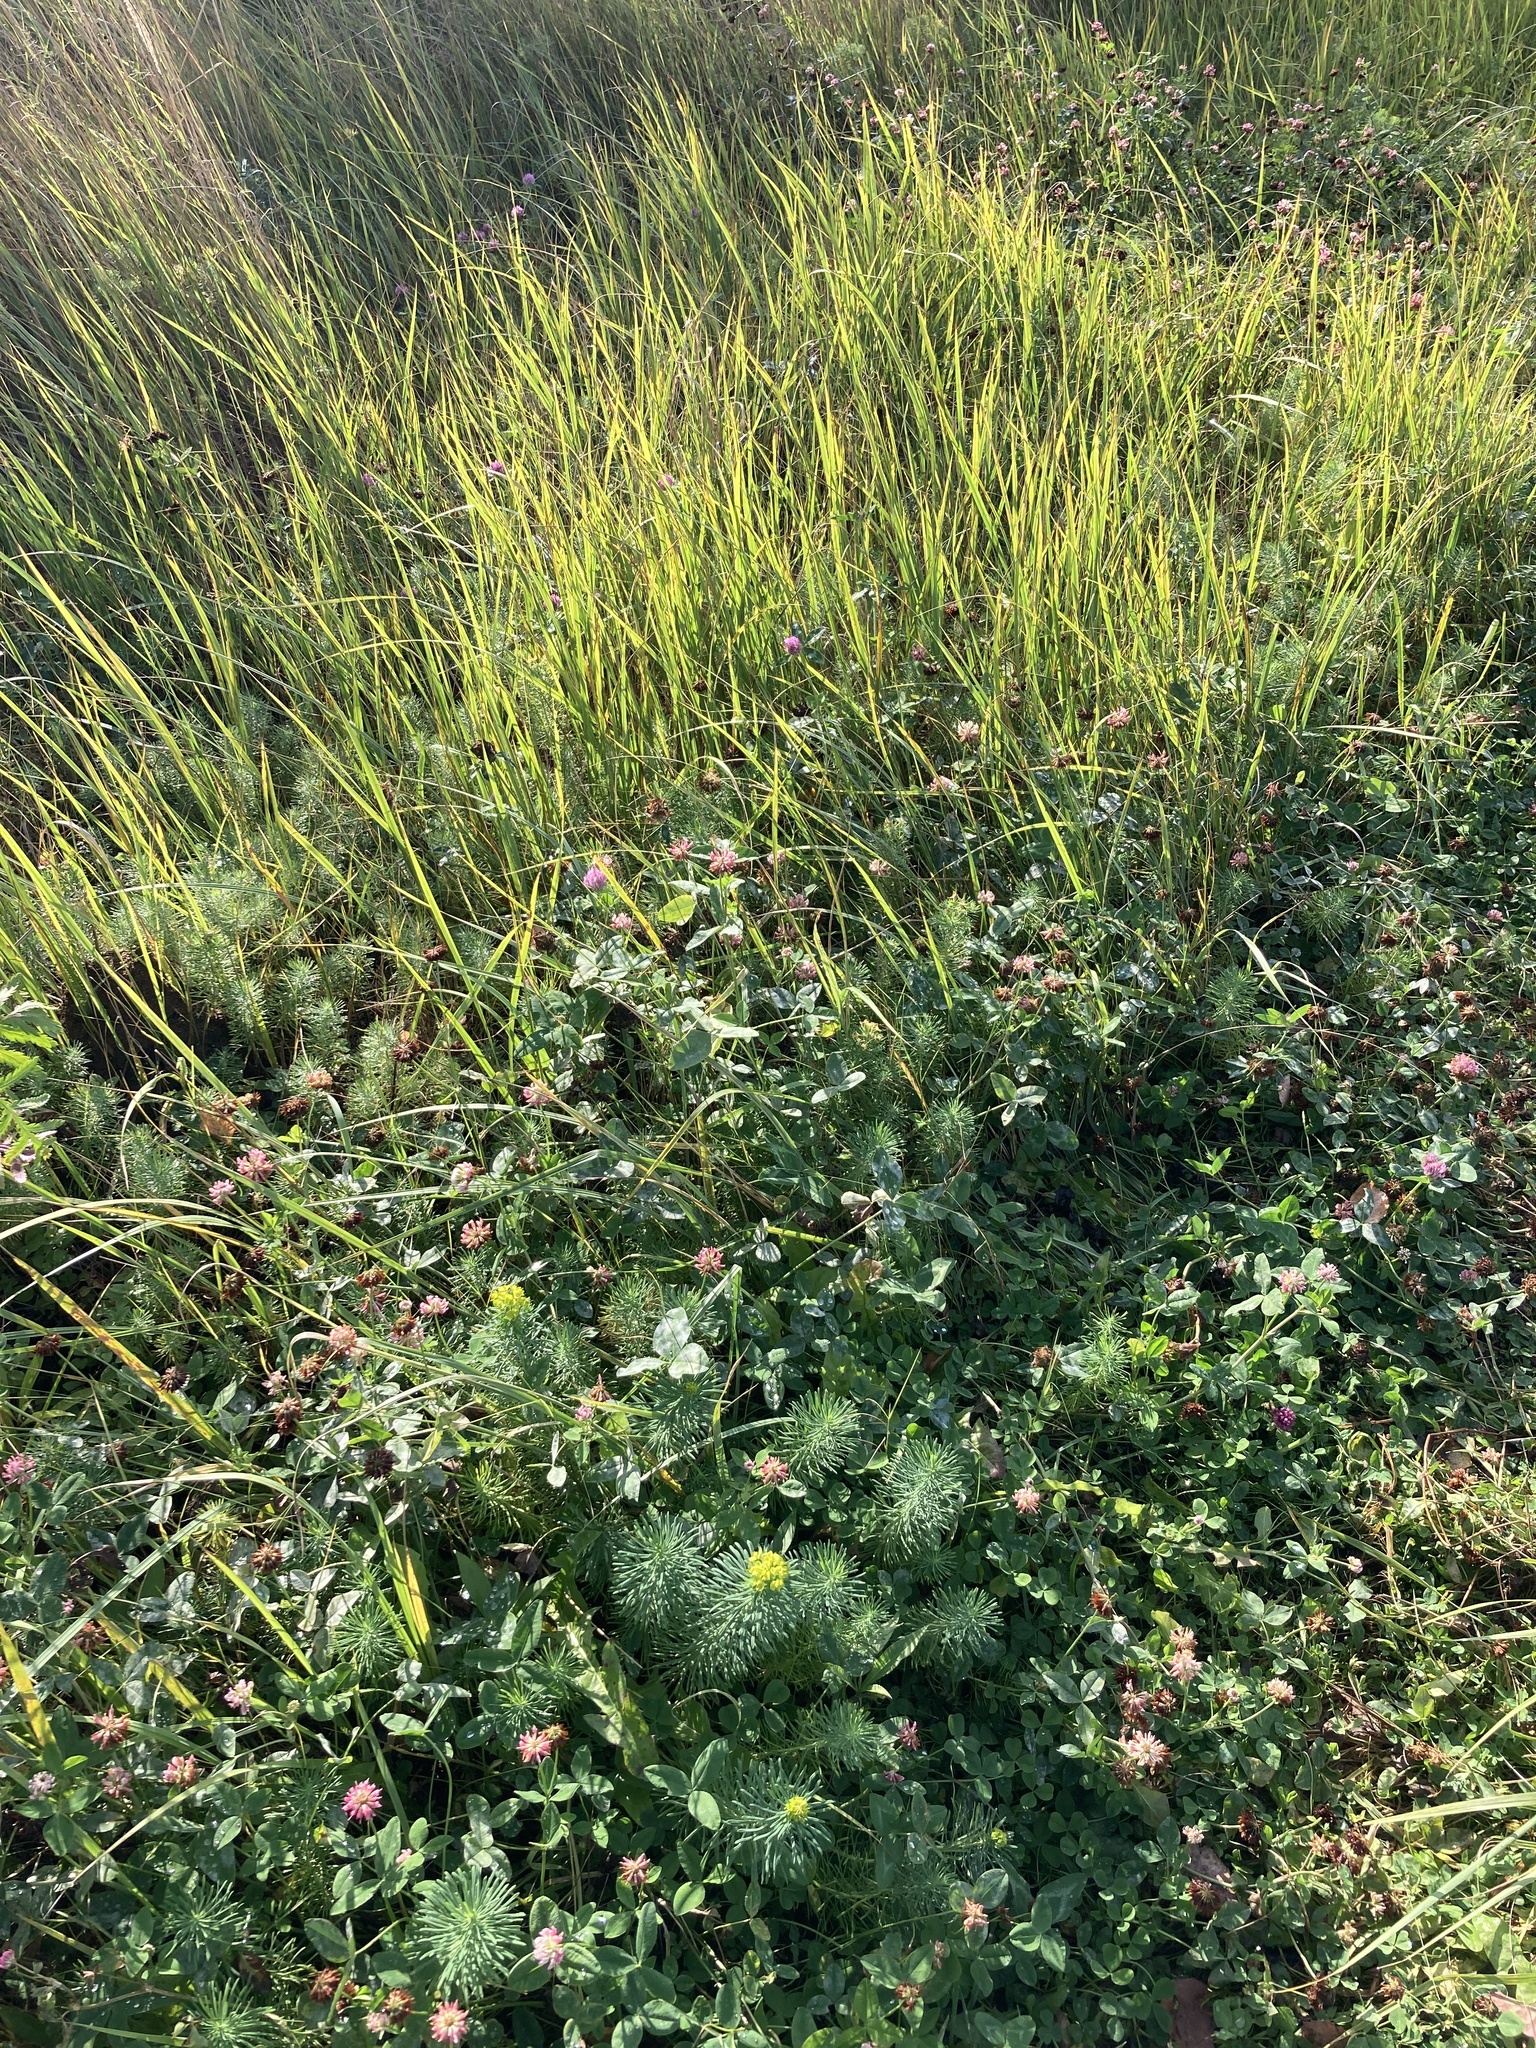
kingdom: Plantae
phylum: Tracheophyta
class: Magnoliopsida
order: Malpighiales
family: Euphorbiaceae
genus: Euphorbia
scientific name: Euphorbia cyparissias
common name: Cypress spurge
